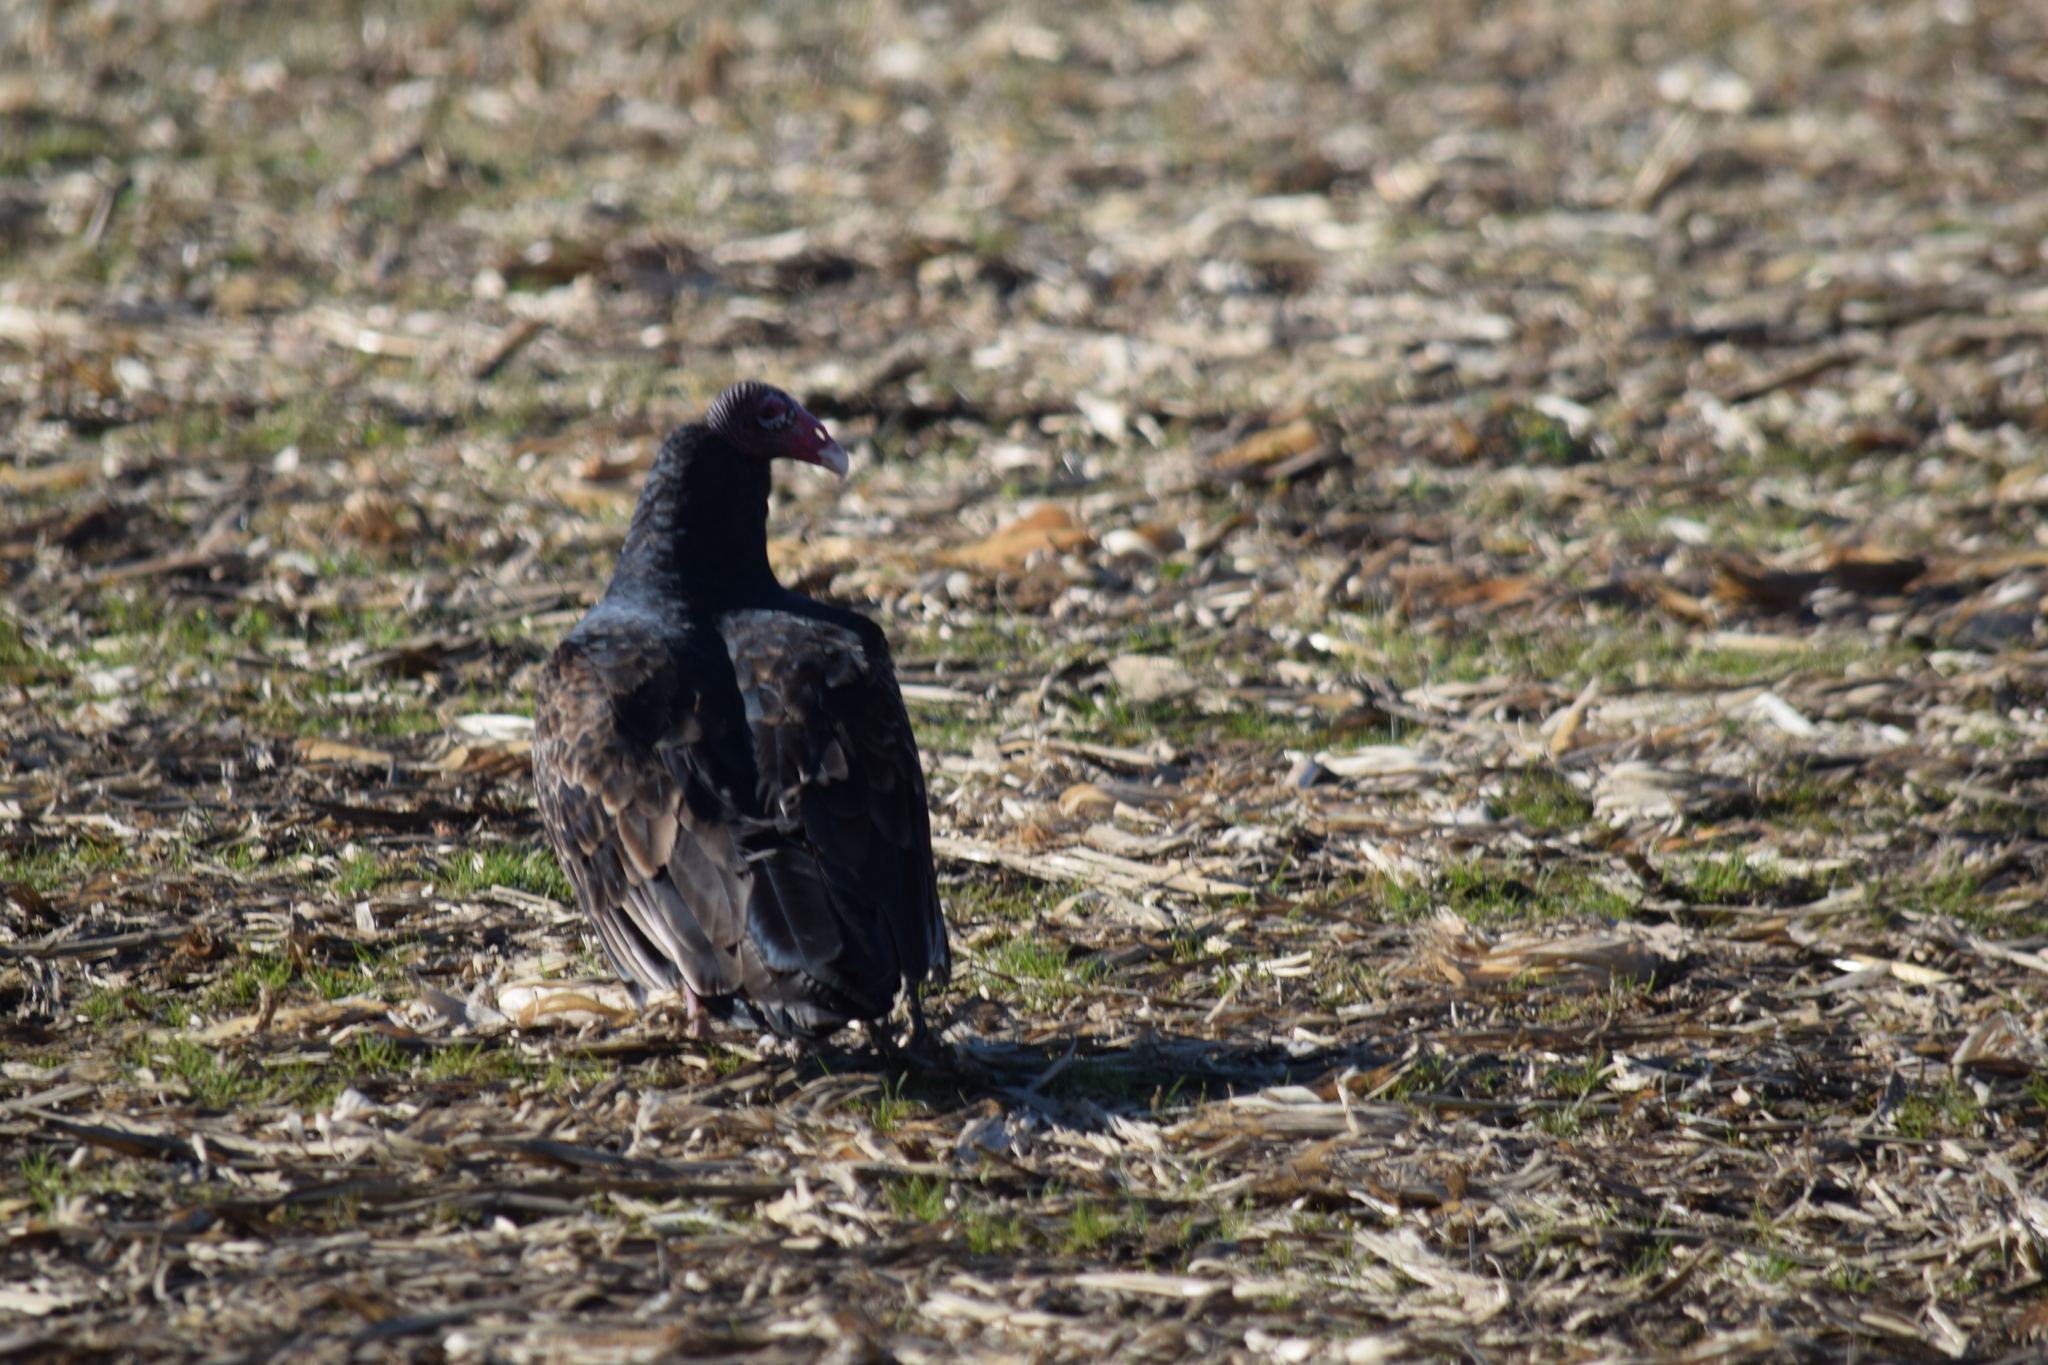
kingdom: Animalia
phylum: Chordata
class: Aves
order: Accipitriformes
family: Cathartidae
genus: Cathartes
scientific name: Cathartes aura
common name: Turkey vulture
